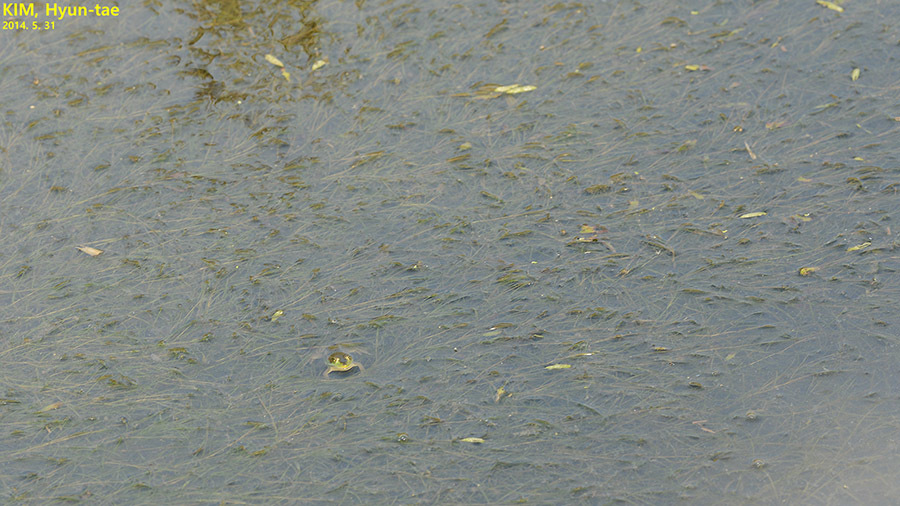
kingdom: Animalia
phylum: Chordata
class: Amphibia
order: Anura
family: Ranidae
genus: Pelophylax
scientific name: Pelophylax chosenicus
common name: Gold-spotted pond frog
